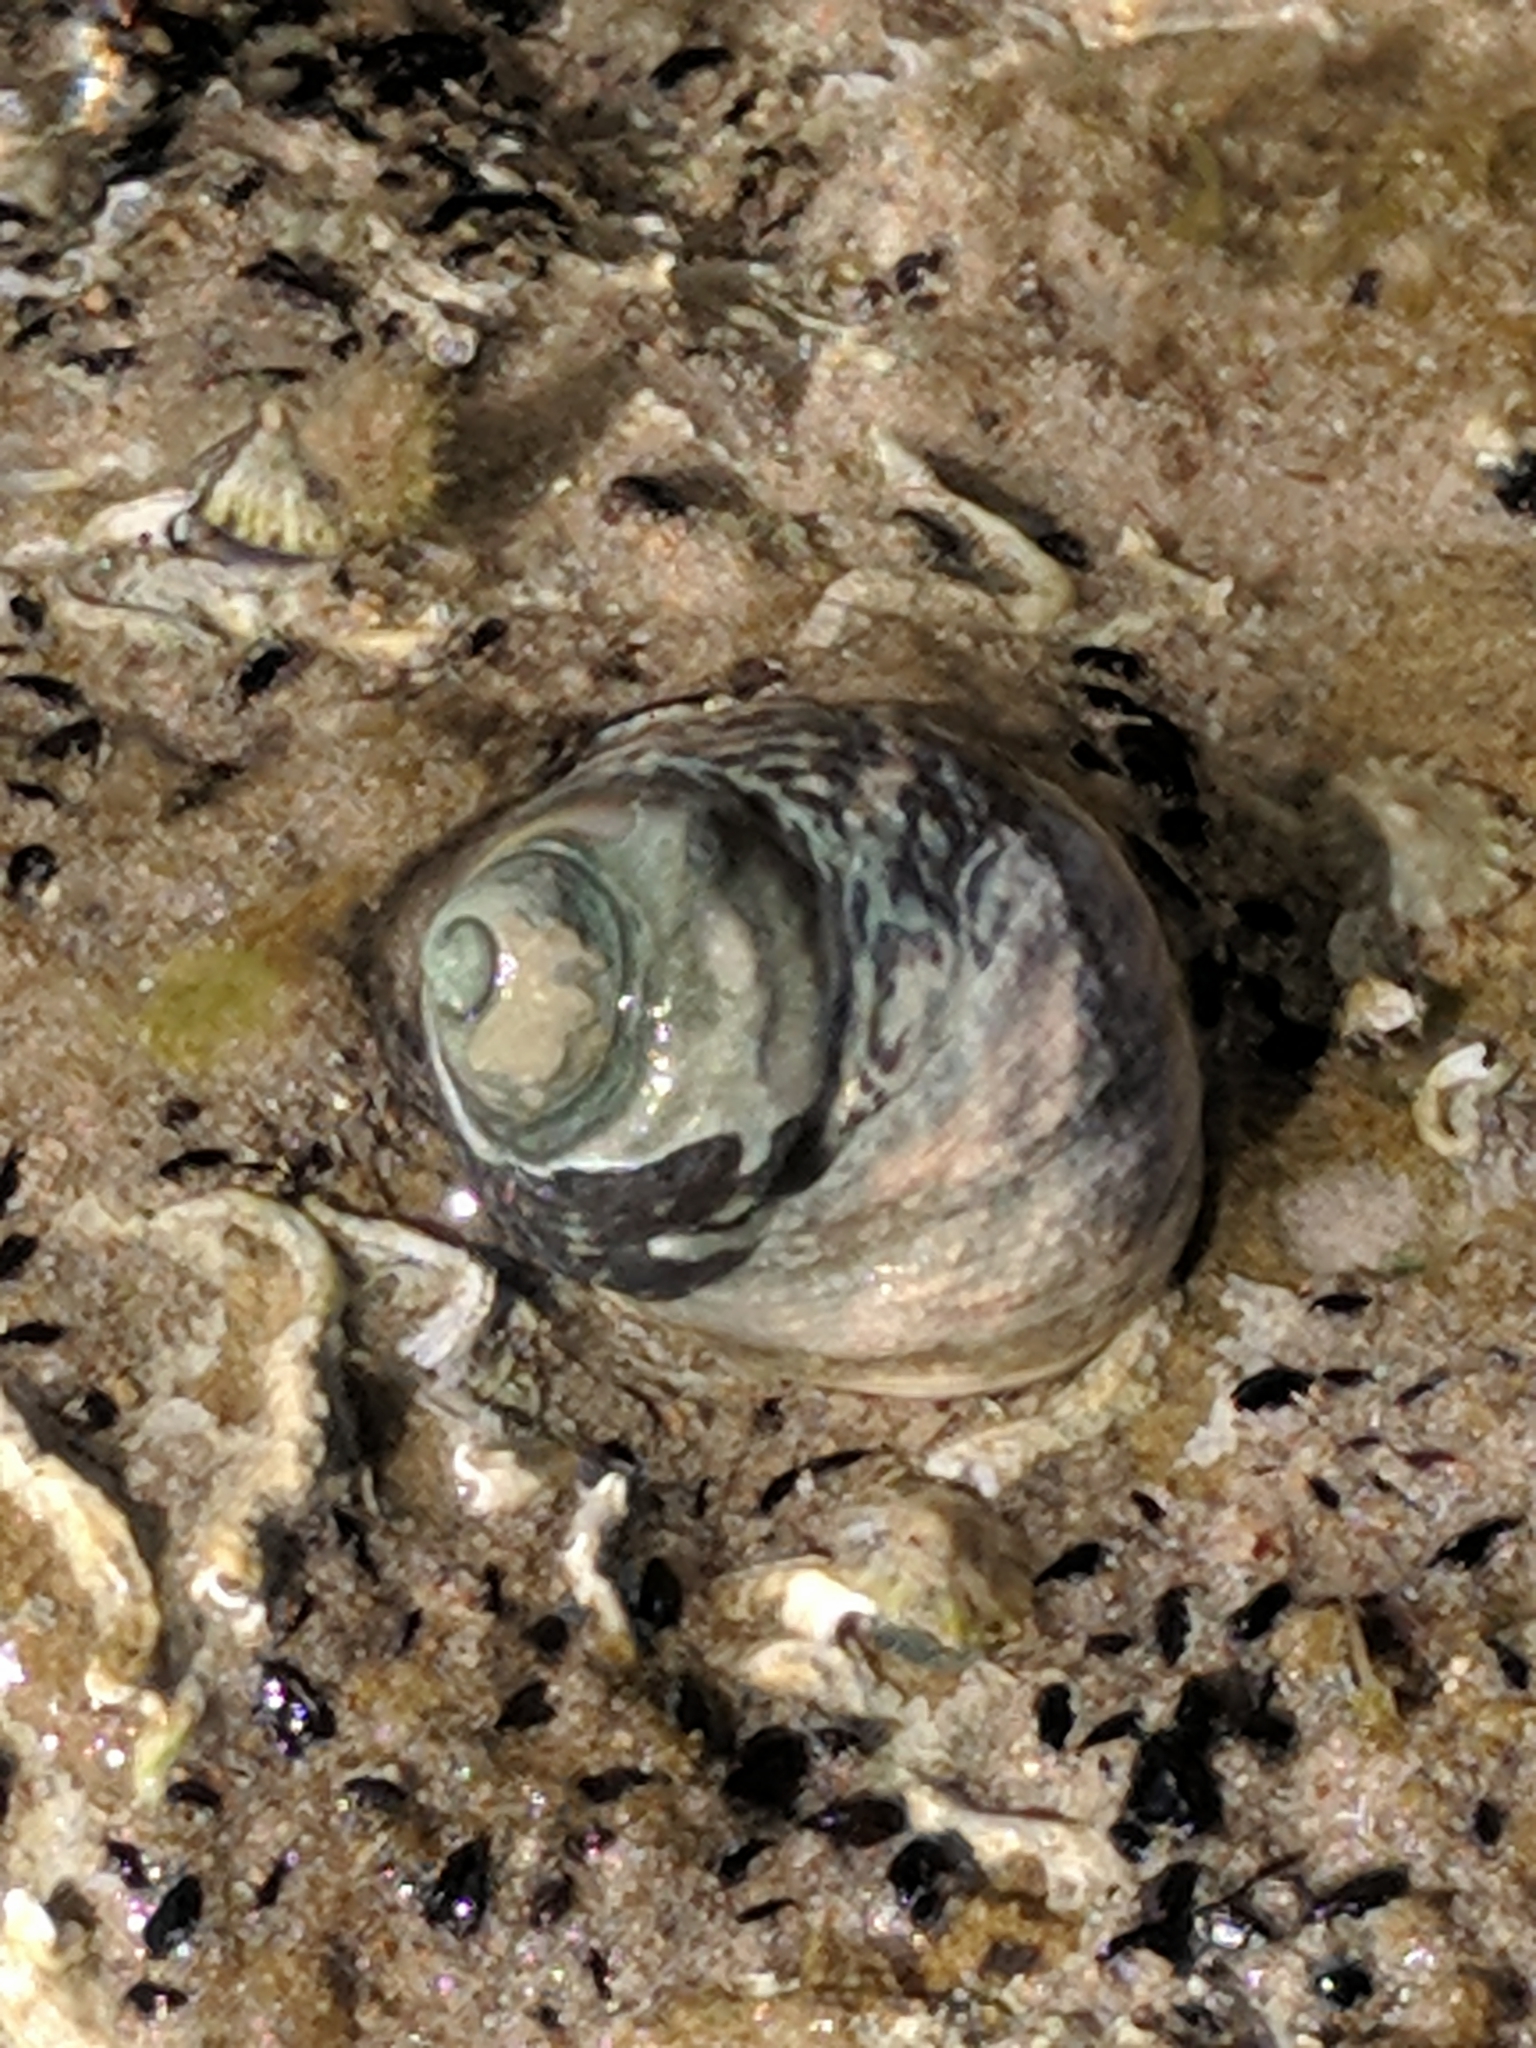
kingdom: Animalia
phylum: Mollusca
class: Gastropoda
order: Trochida
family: Trochidae
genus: Austrocochlea
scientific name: Austrocochlea constricta
